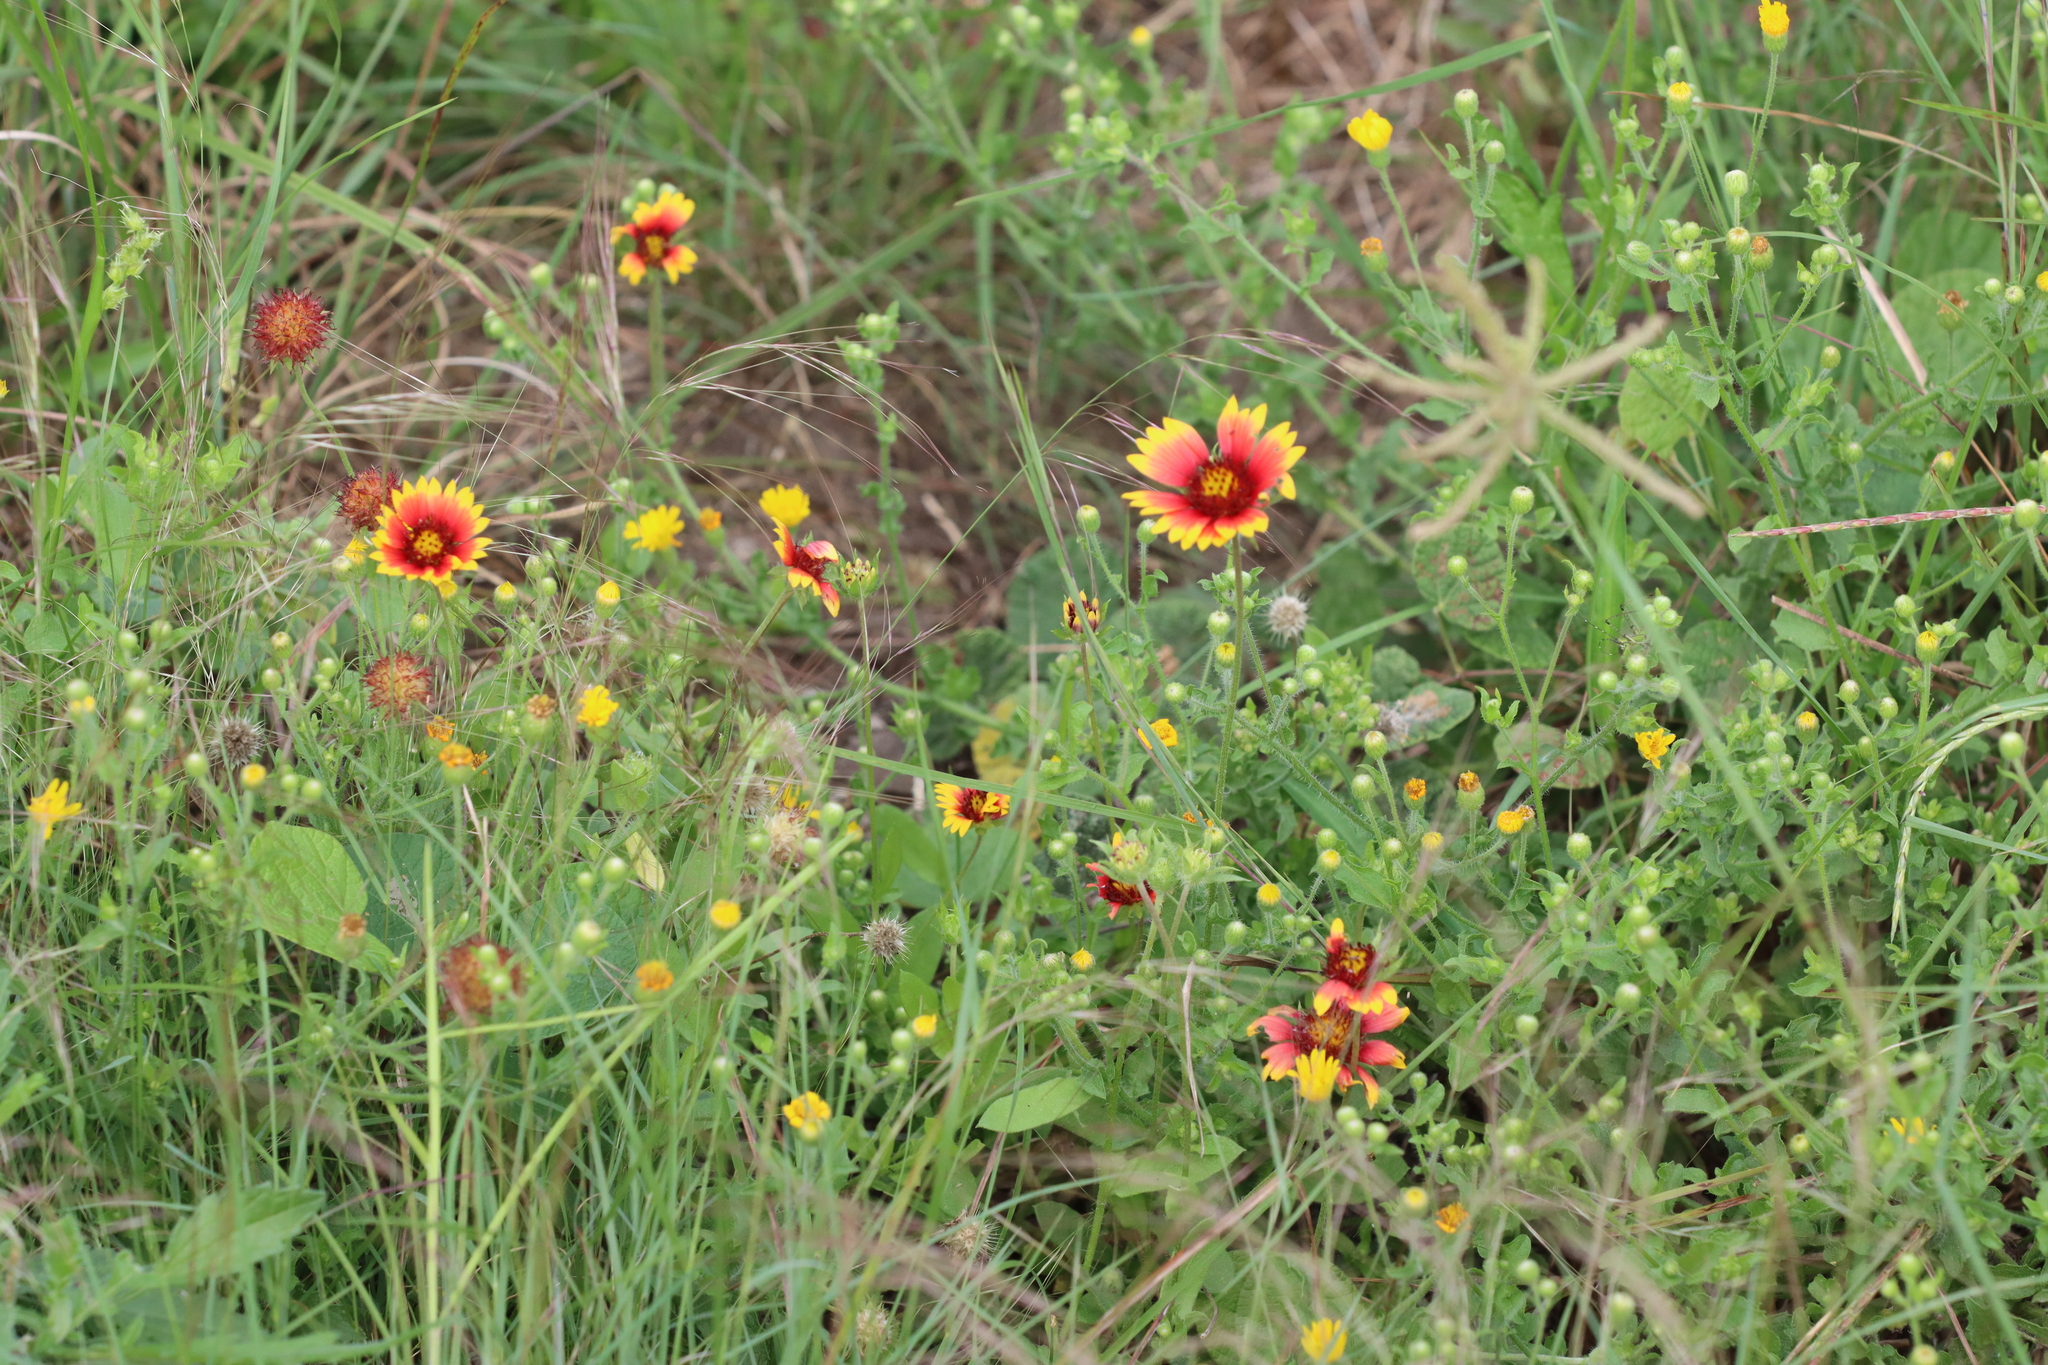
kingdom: Plantae
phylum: Tracheophyta
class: Magnoliopsida
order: Asterales
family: Asteraceae
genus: Gaillardia
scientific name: Gaillardia pulchella
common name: Firewheel
